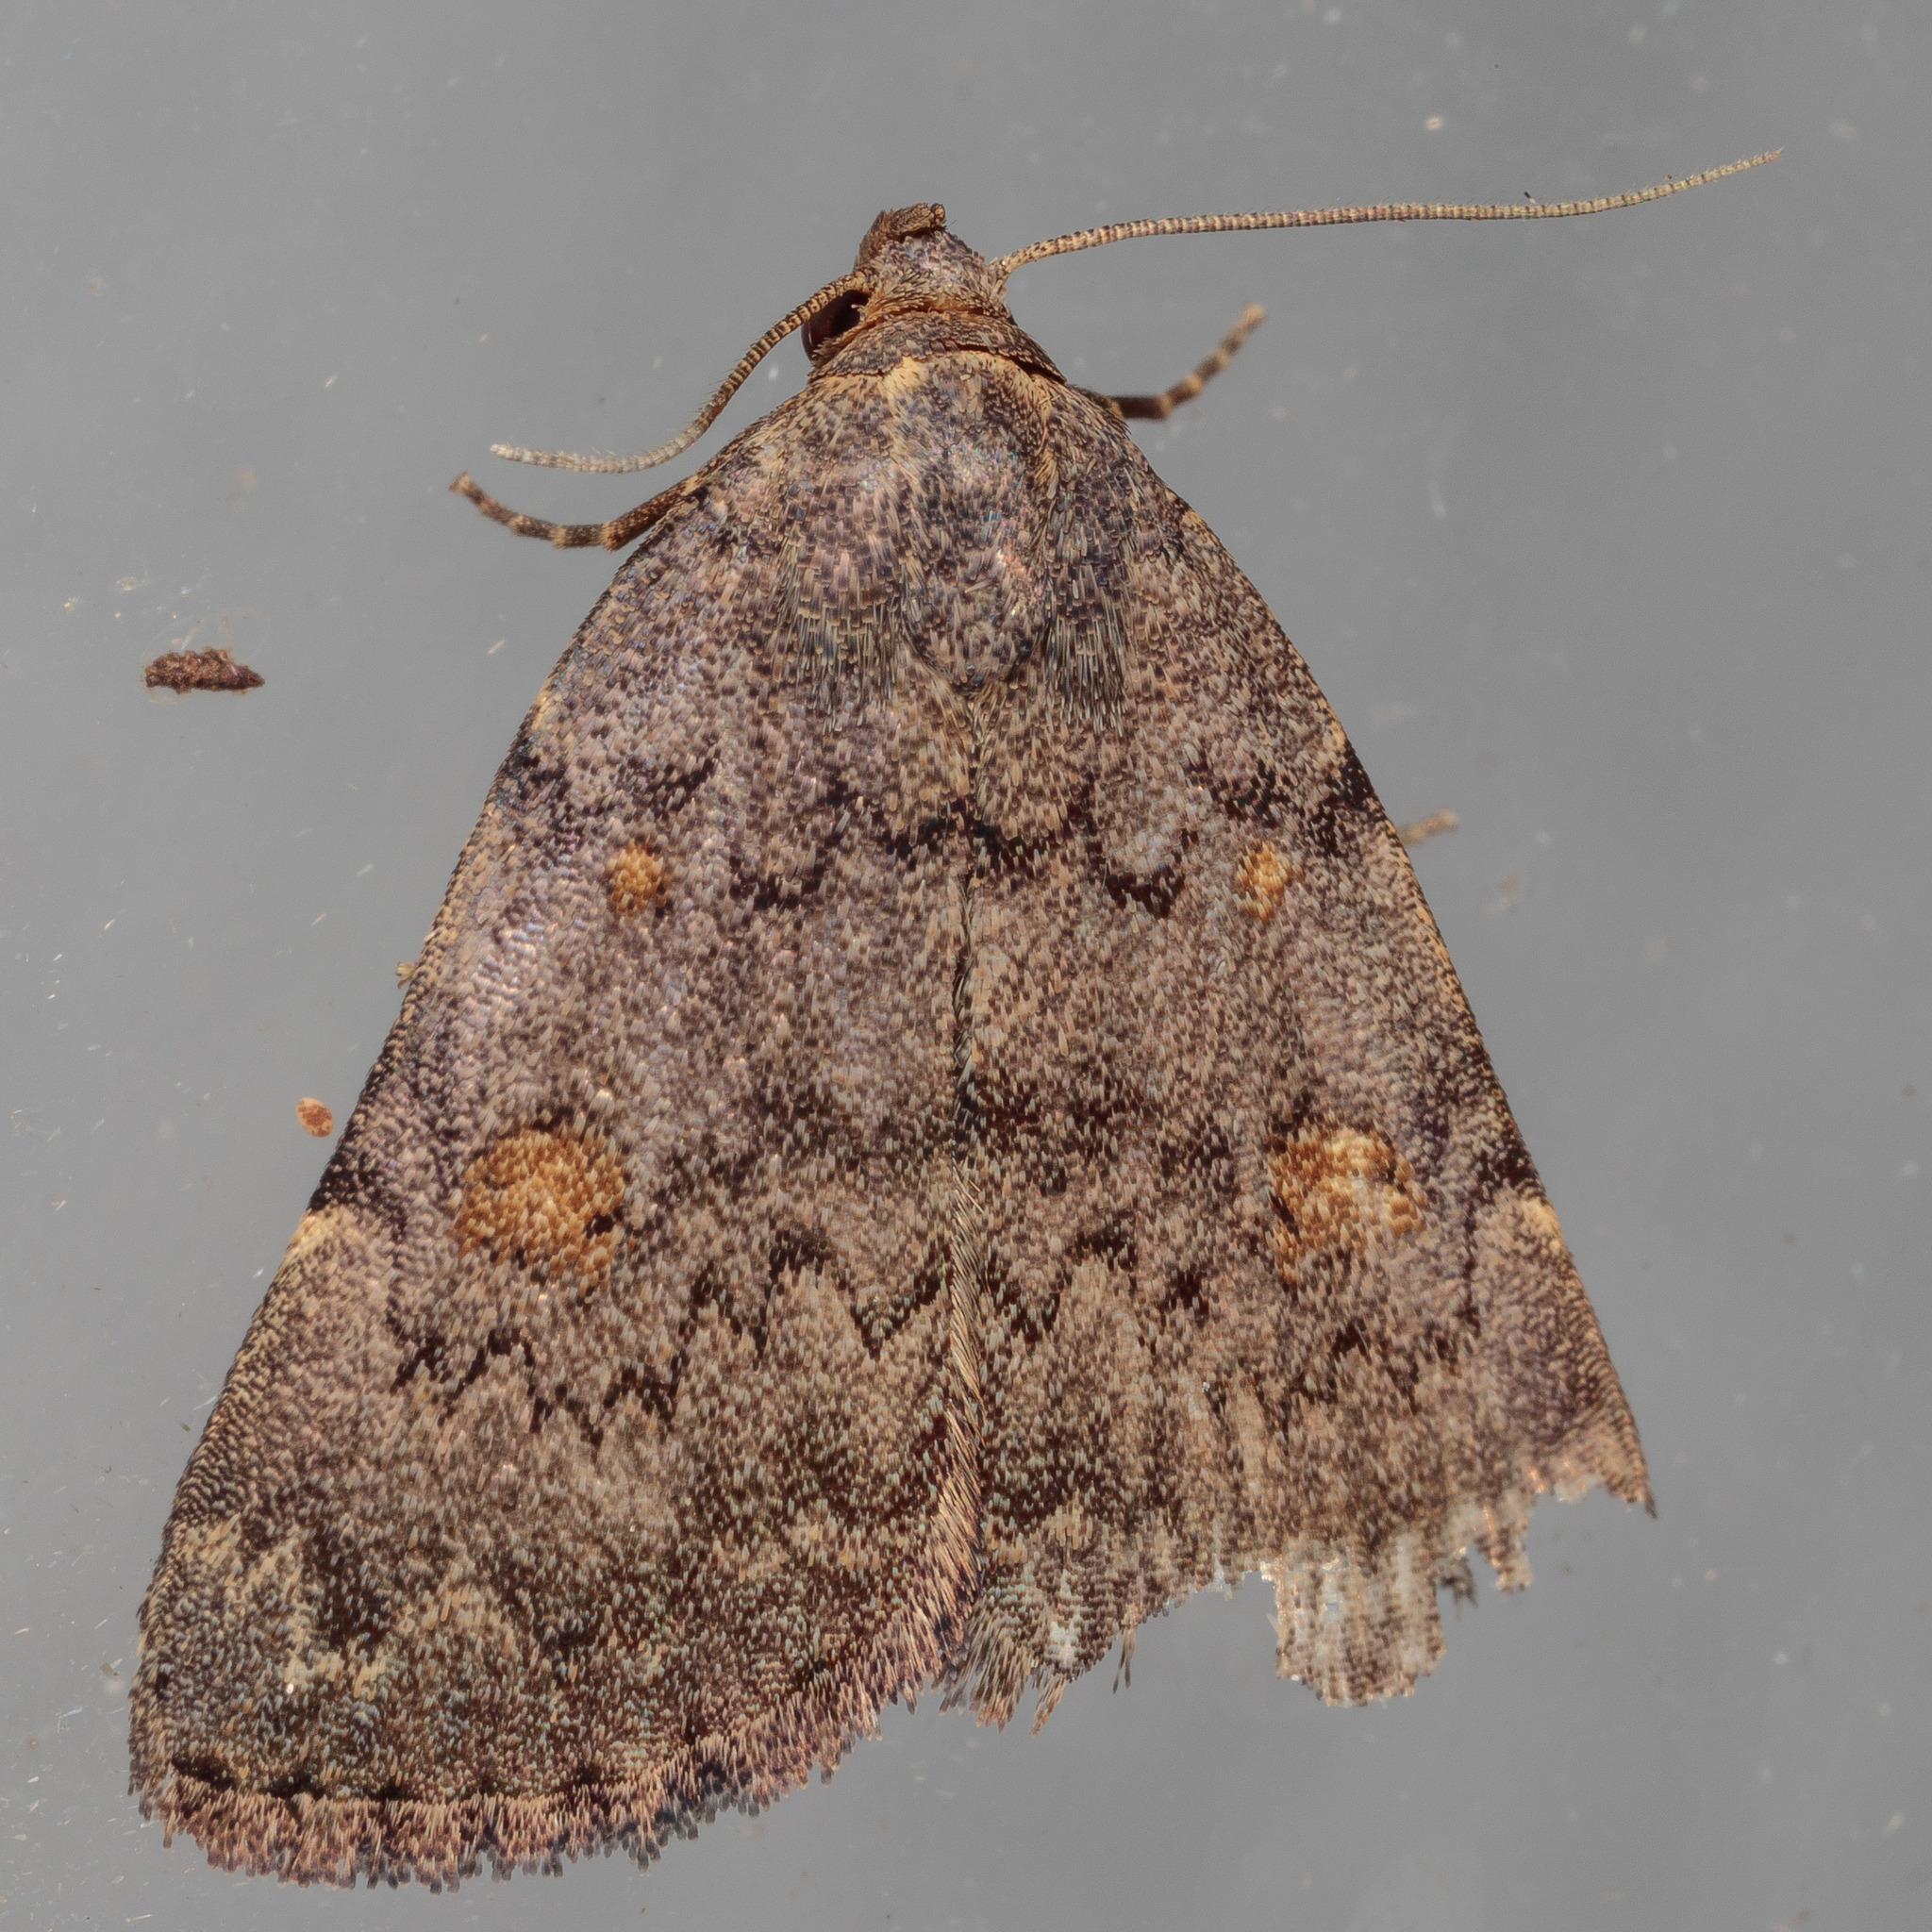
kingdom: Animalia
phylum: Arthropoda
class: Insecta
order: Lepidoptera
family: Erebidae
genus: Idia
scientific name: Idia aemula
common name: Common idia moth
